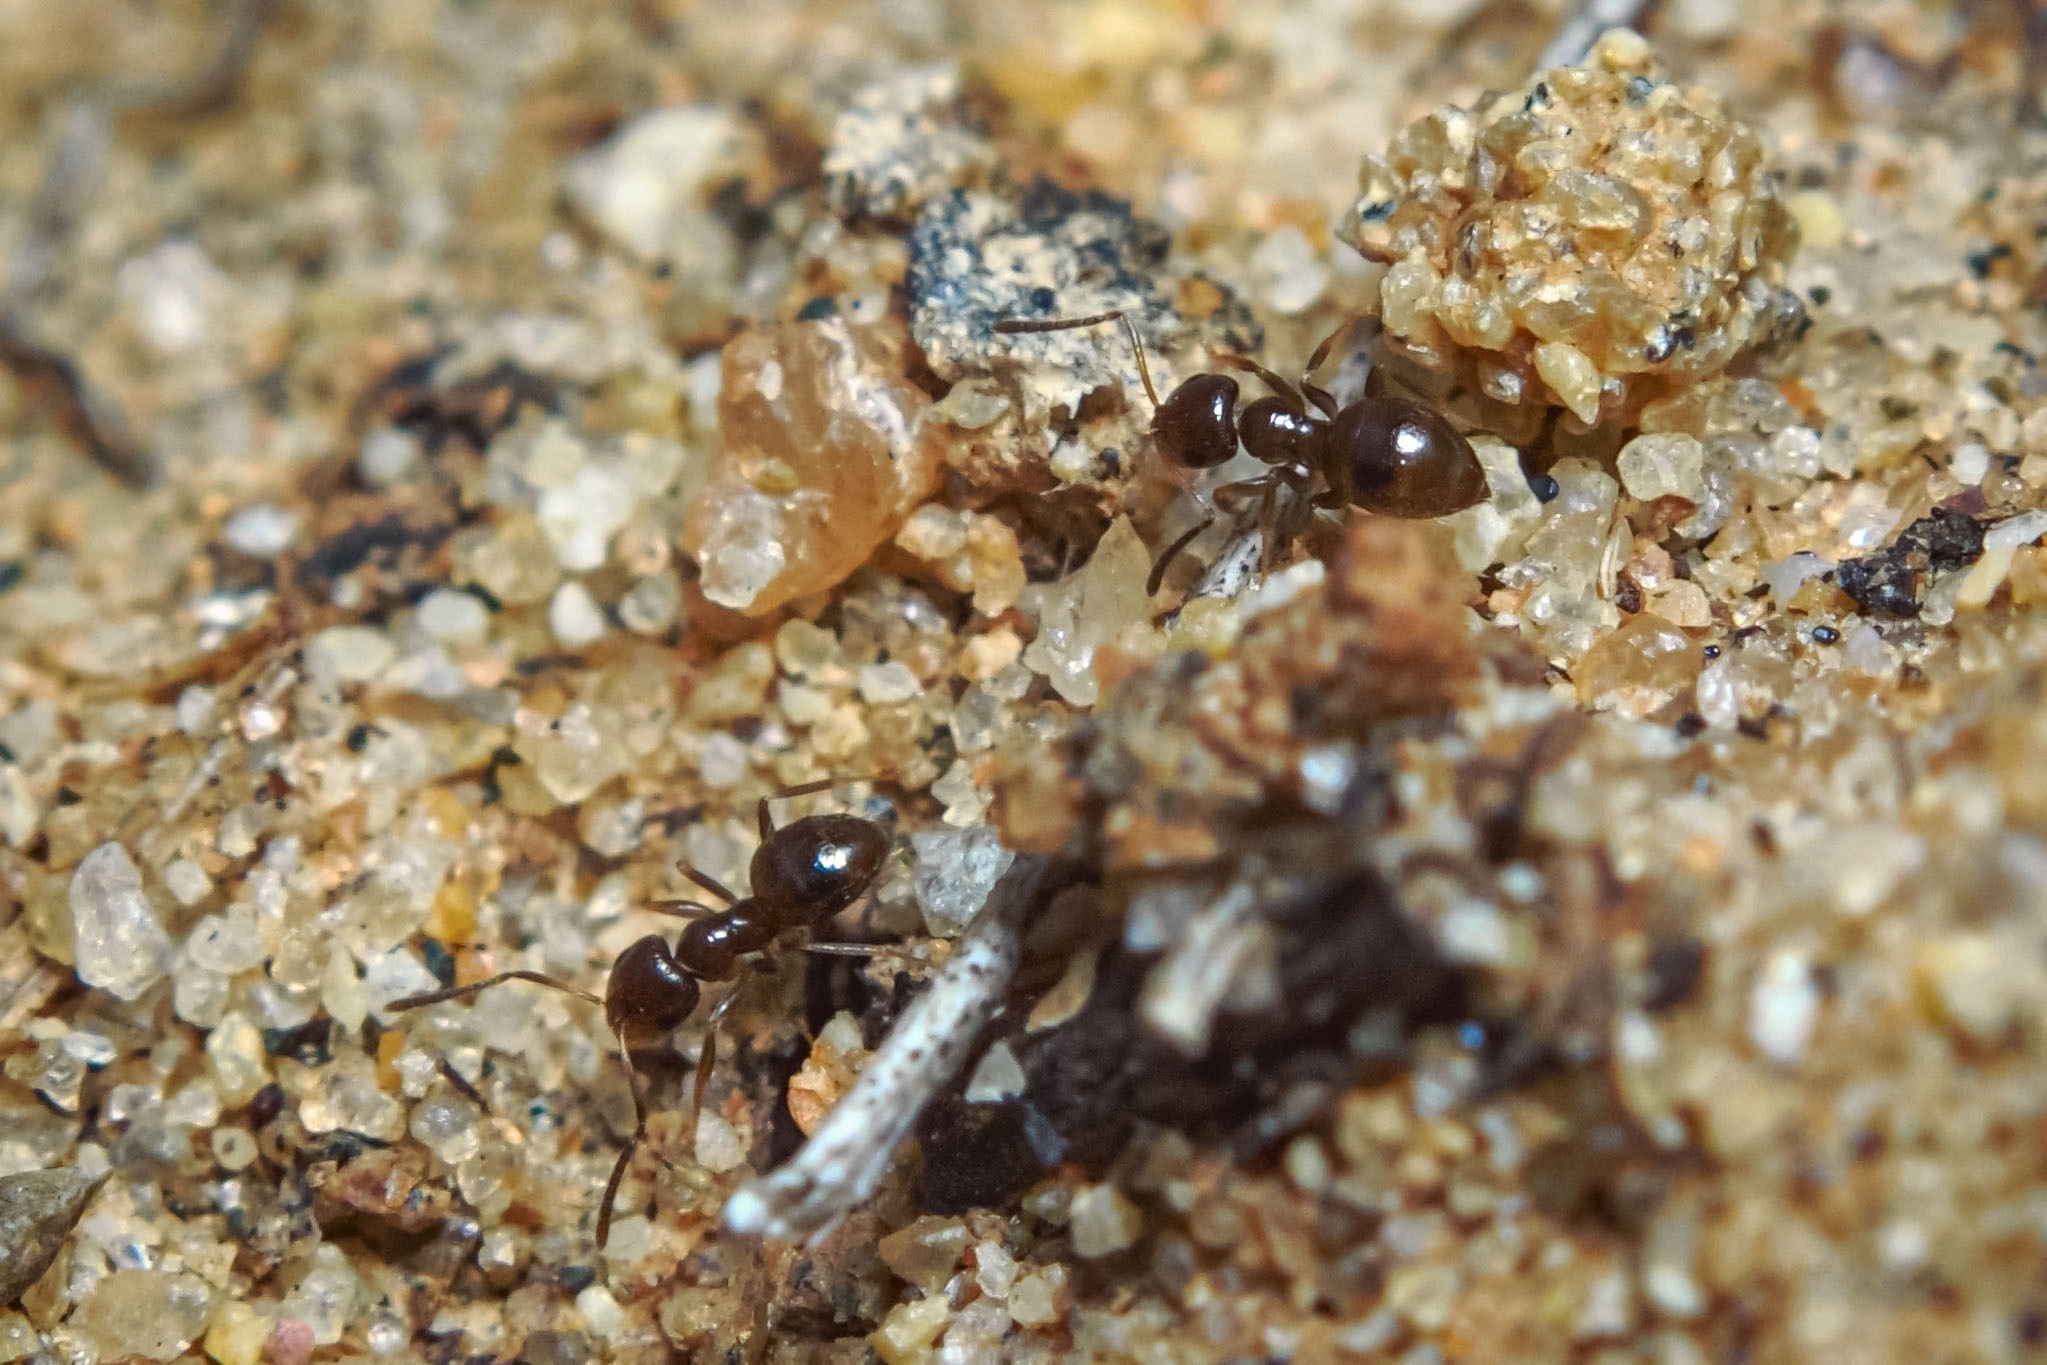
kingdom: Animalia
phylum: Arthropoda
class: Insecta
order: Hymenoptera
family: Formicidae
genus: Brachymyrmex
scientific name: Brachymyrmex patagonicus
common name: Dark rover ant
